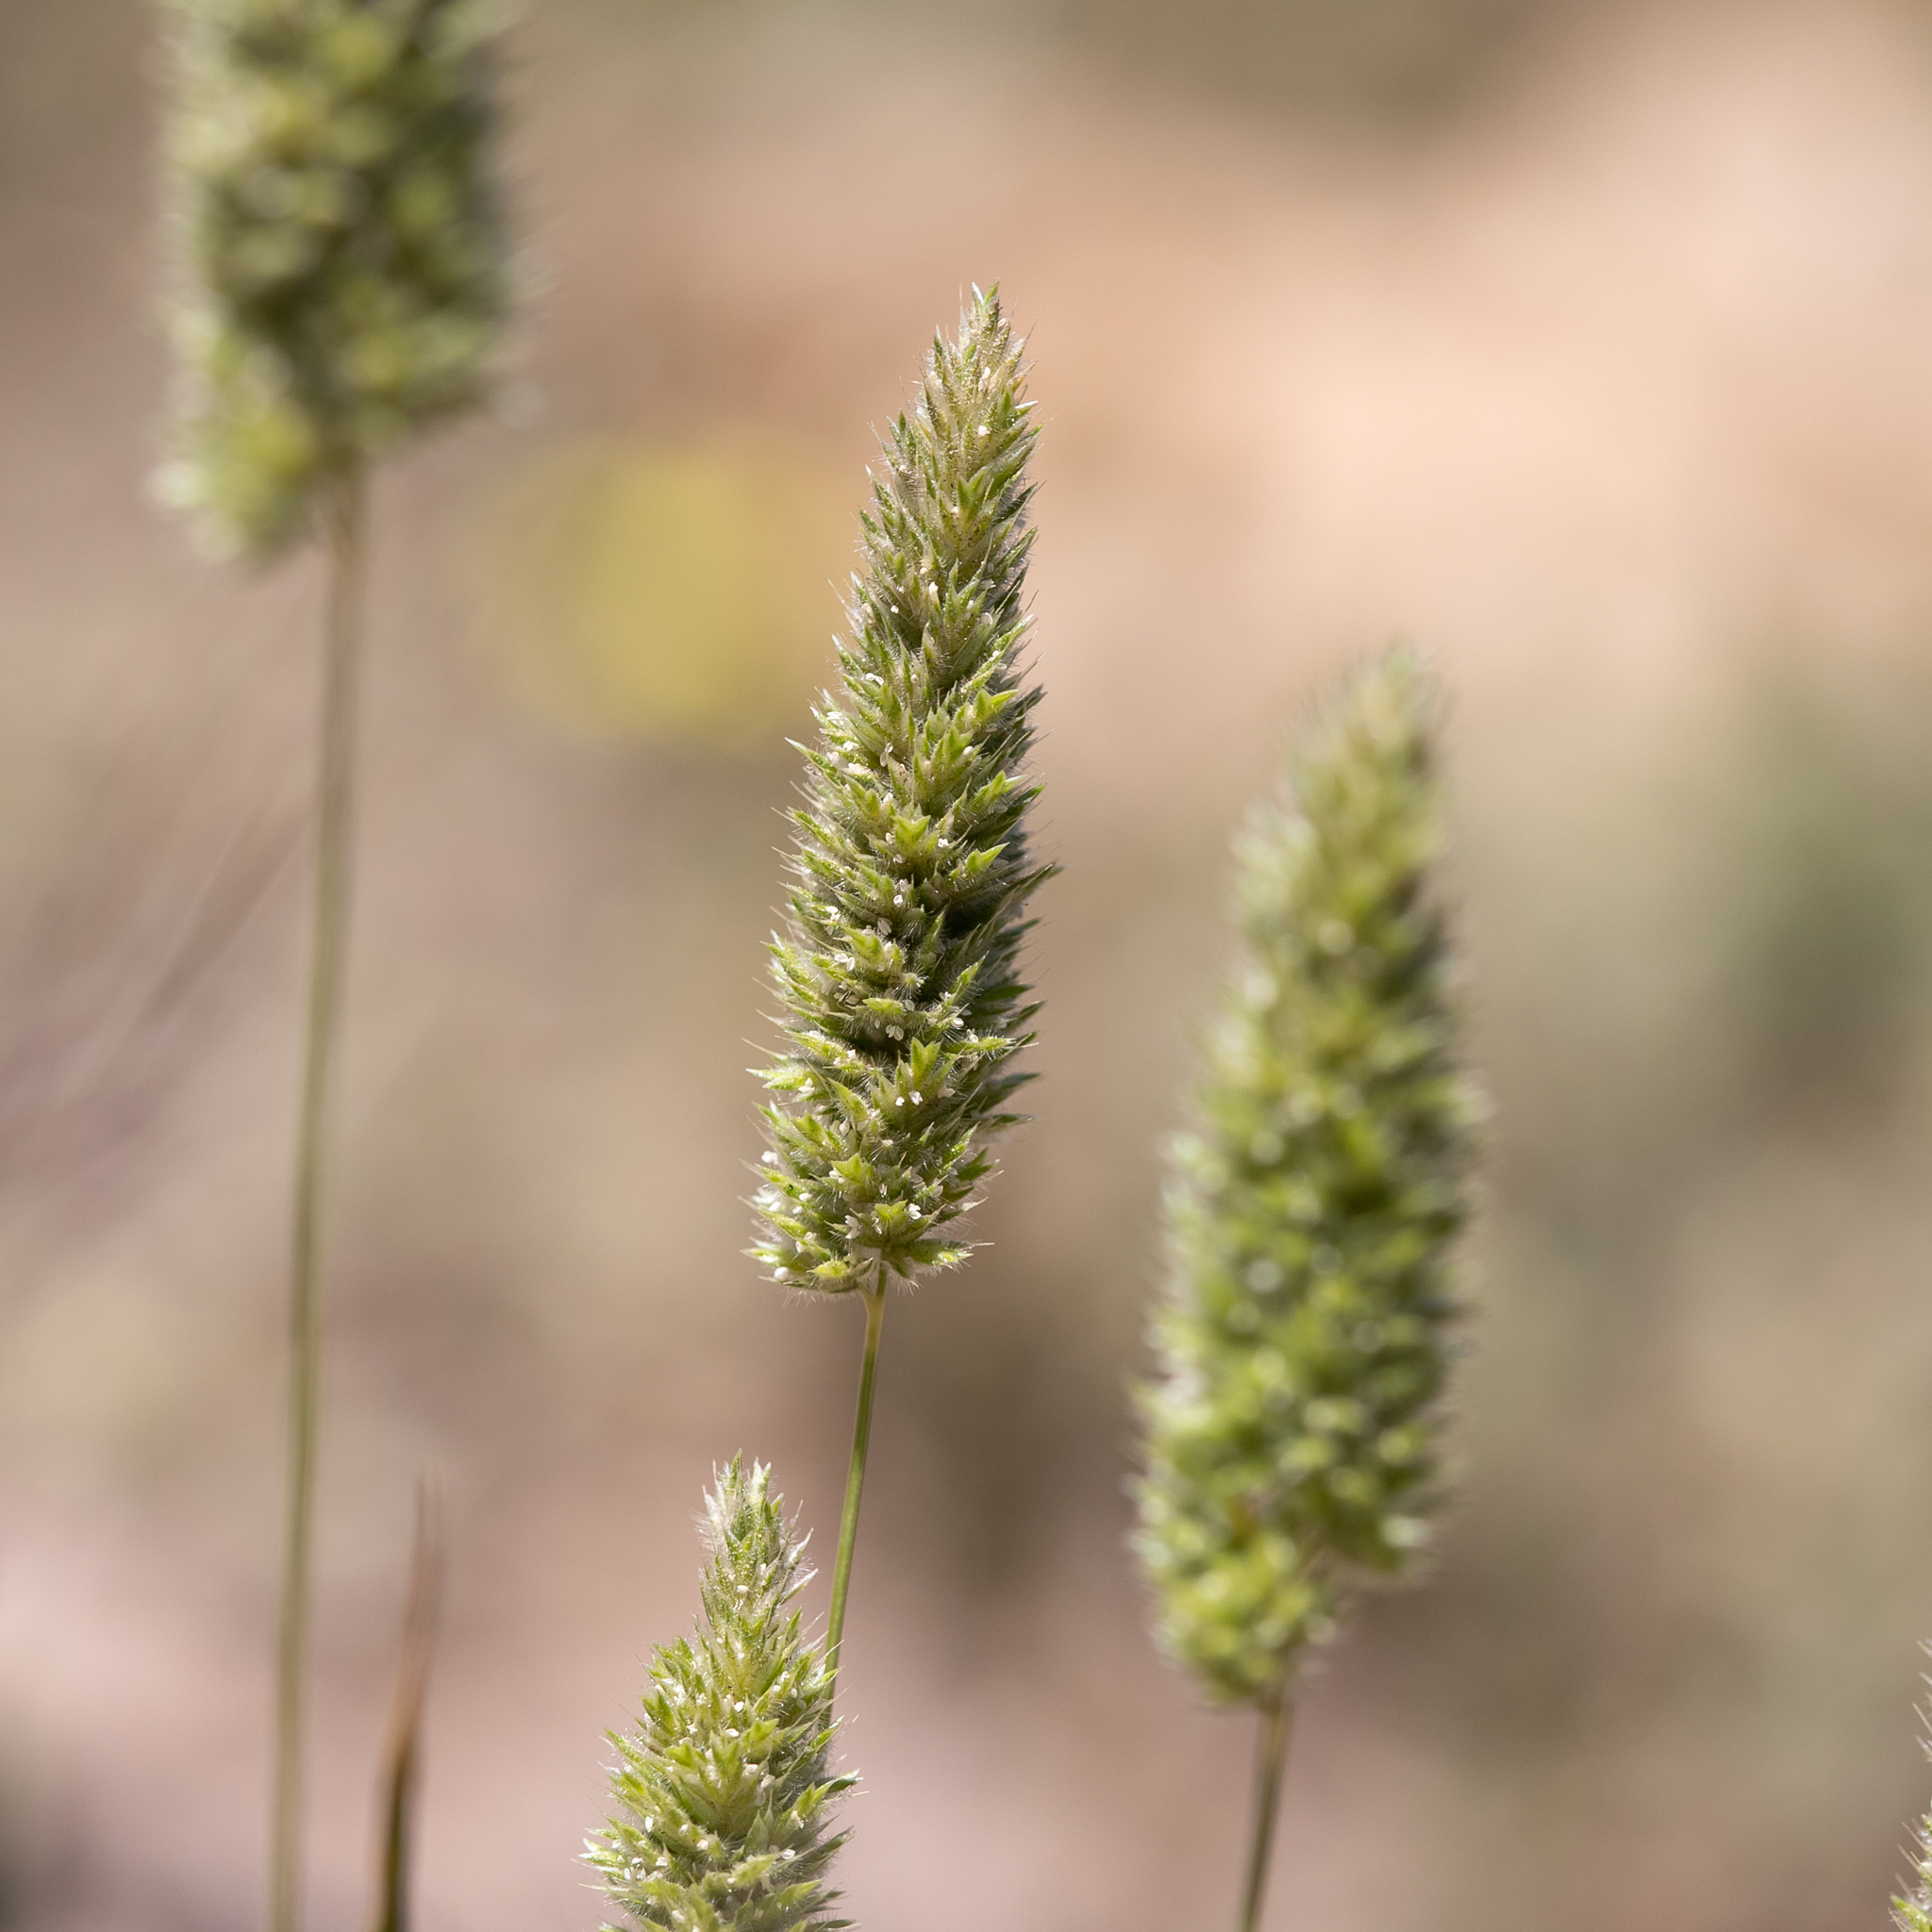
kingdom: Plantae
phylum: Tracheophyta
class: Liliopsida
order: Poales
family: Poaceae
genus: Rostraria
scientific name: Rostraria pumila
